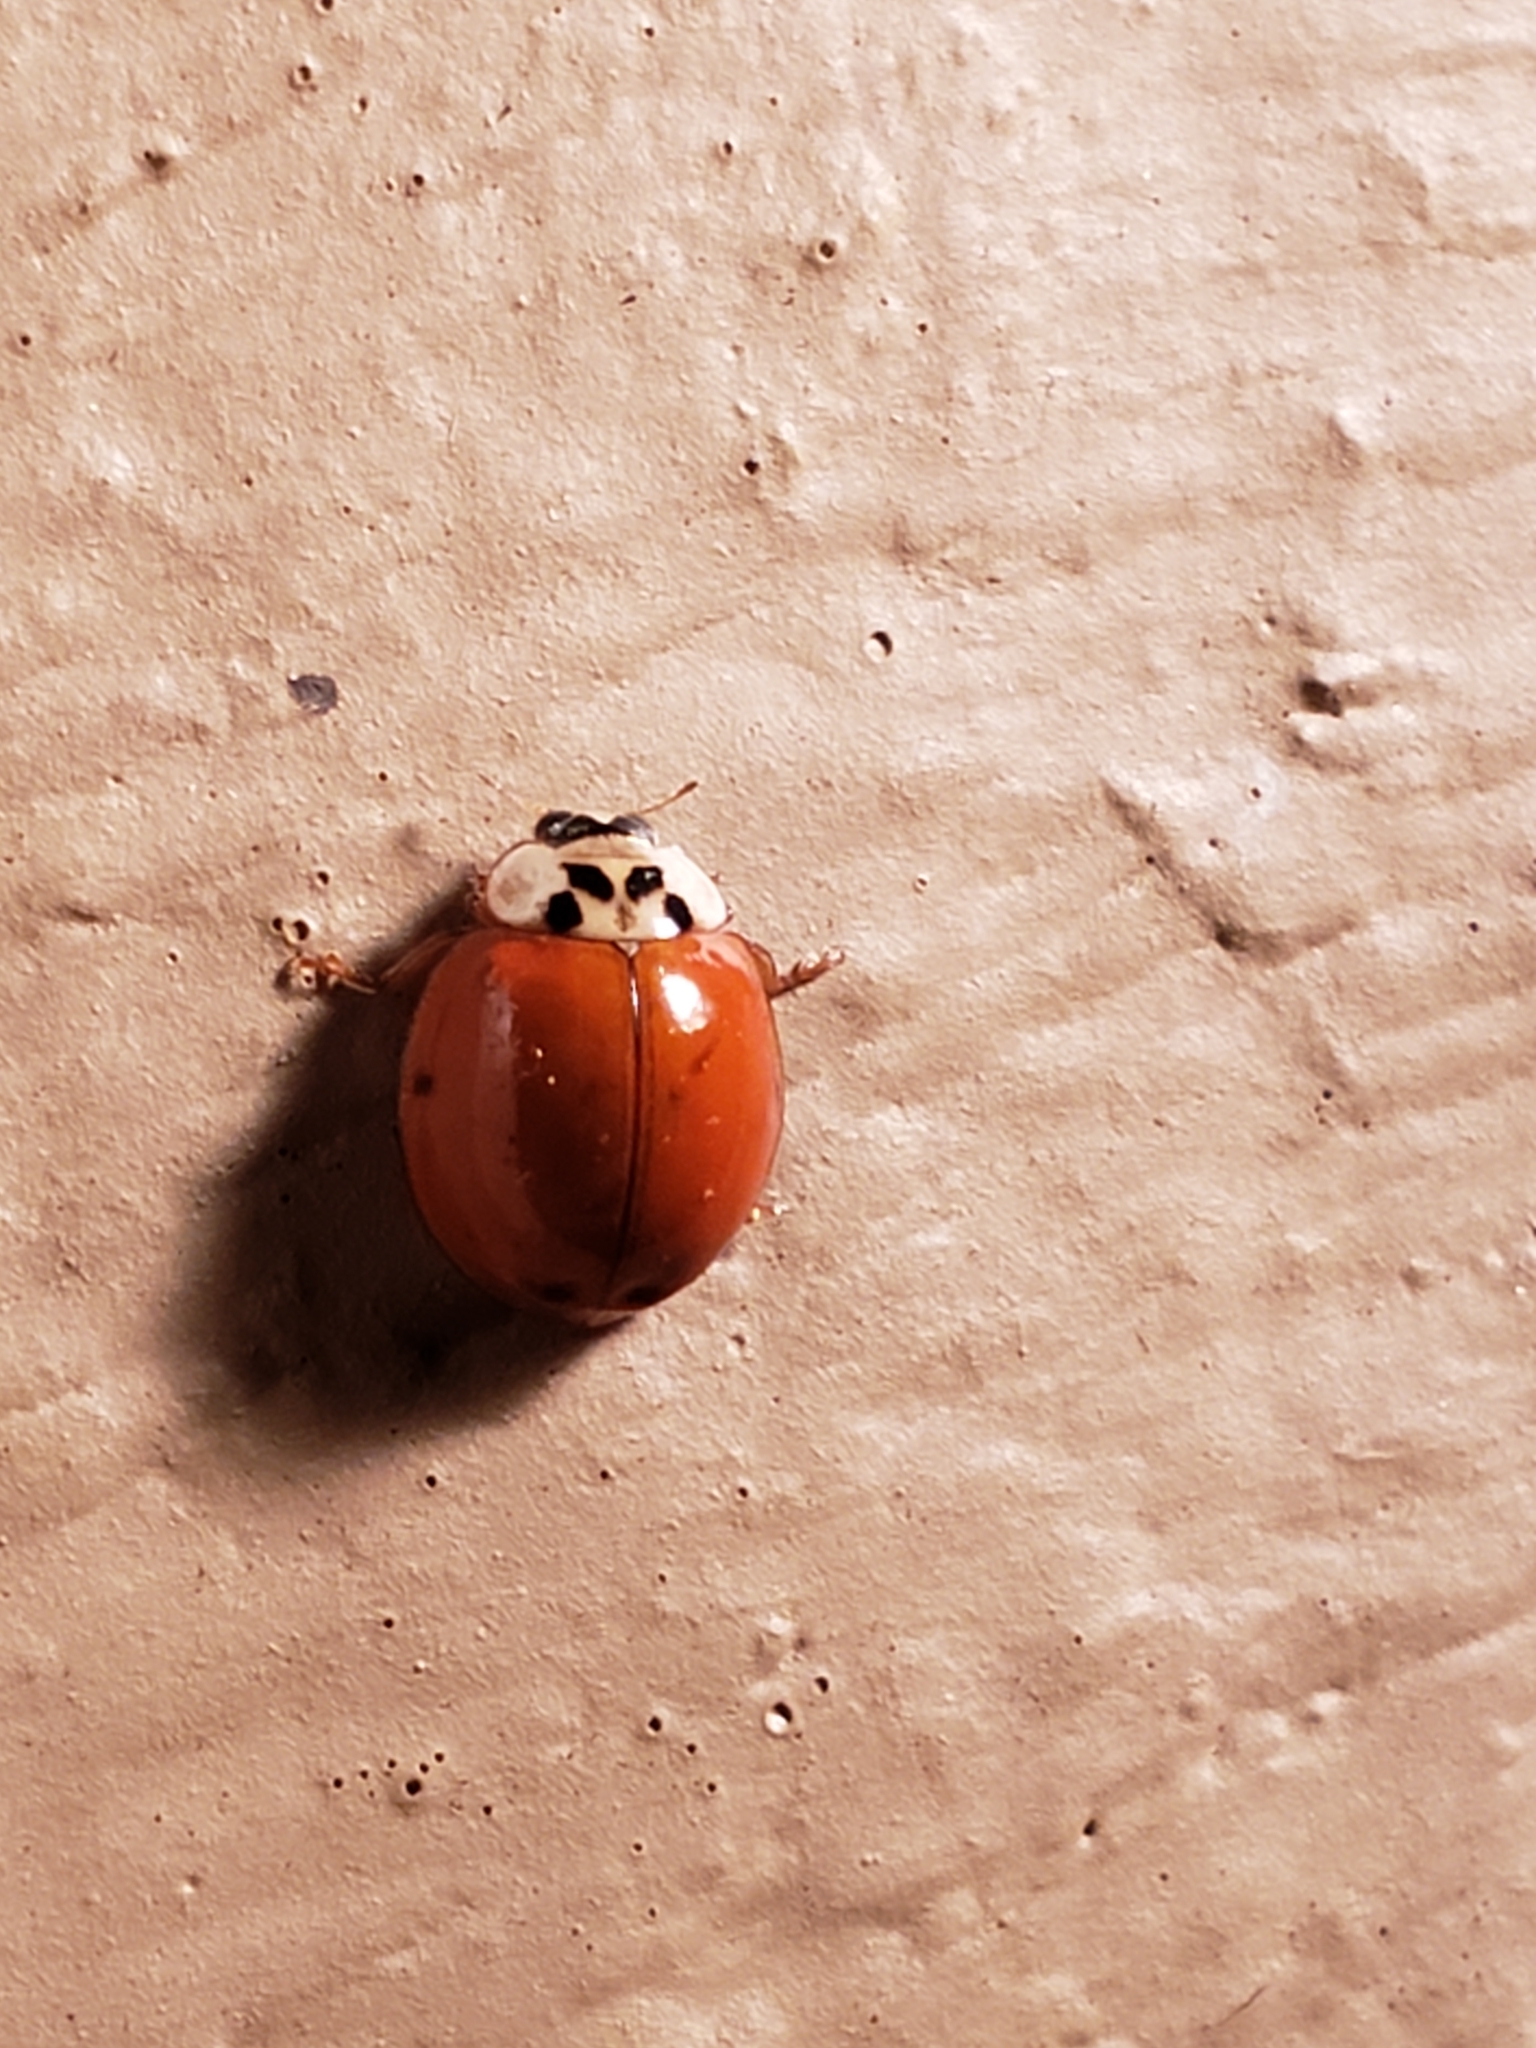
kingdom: Animalia
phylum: Arthropoda
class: Insecta
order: Coleoptera
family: Coccinellidae
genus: Harmonia
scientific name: Harmonia axyridis
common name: Harlequin ladybird
